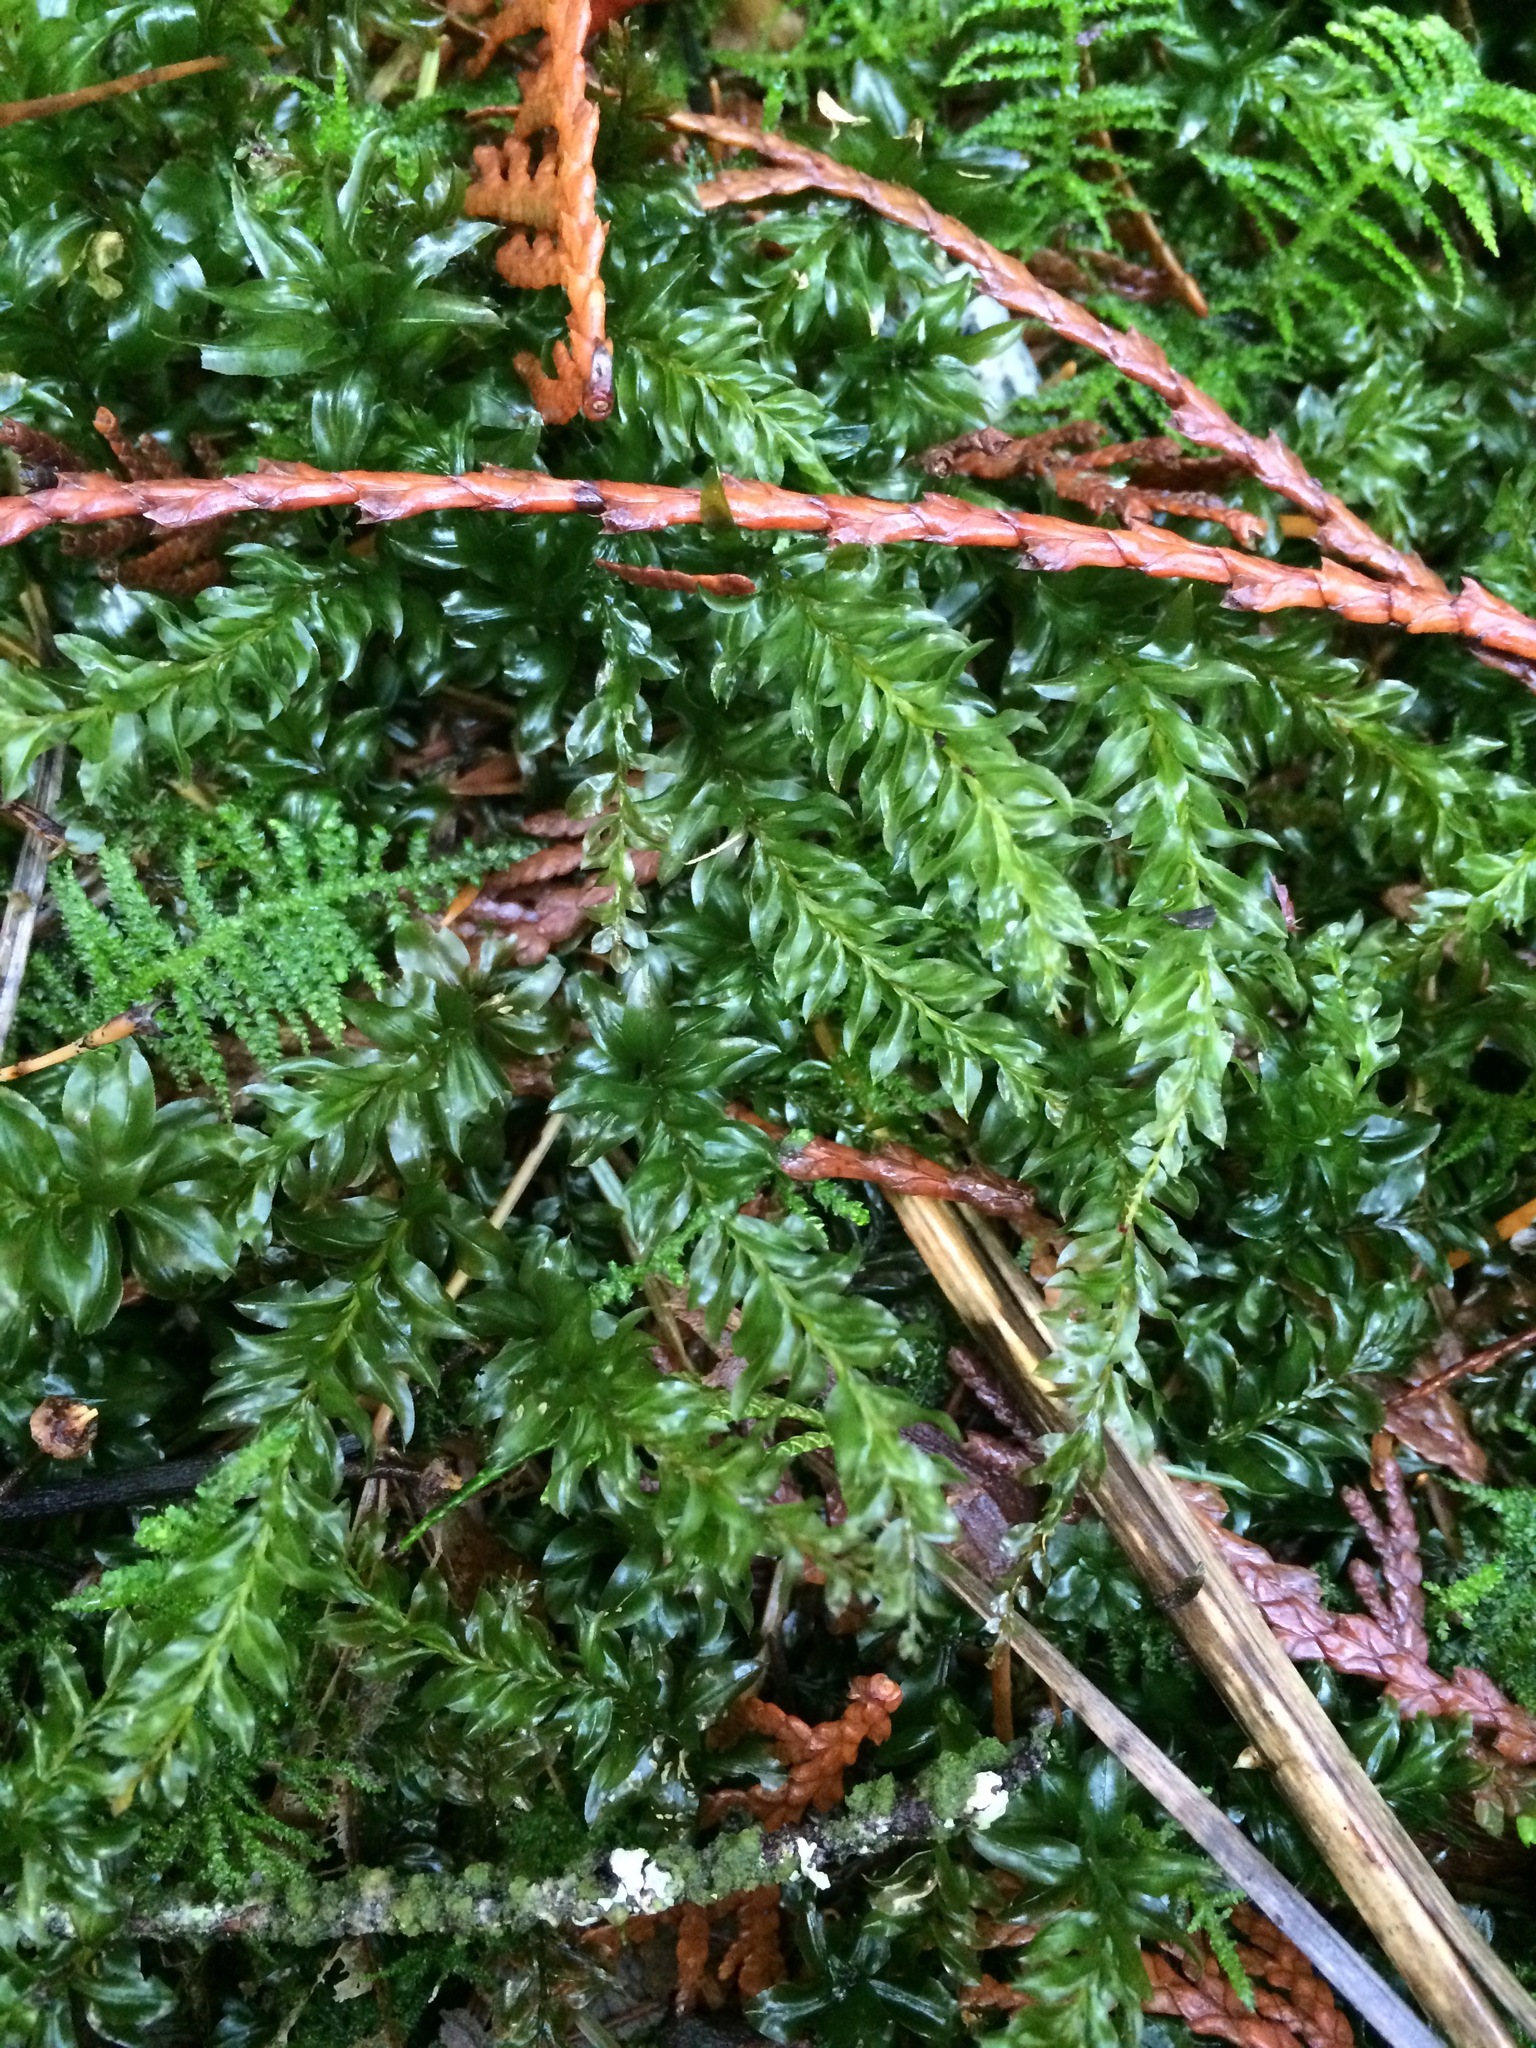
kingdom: Plantae
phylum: Bryophyta
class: Bryopsida
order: Bryales
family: Mniaceae
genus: Plagiomnium
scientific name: Plagiomnium insigne
